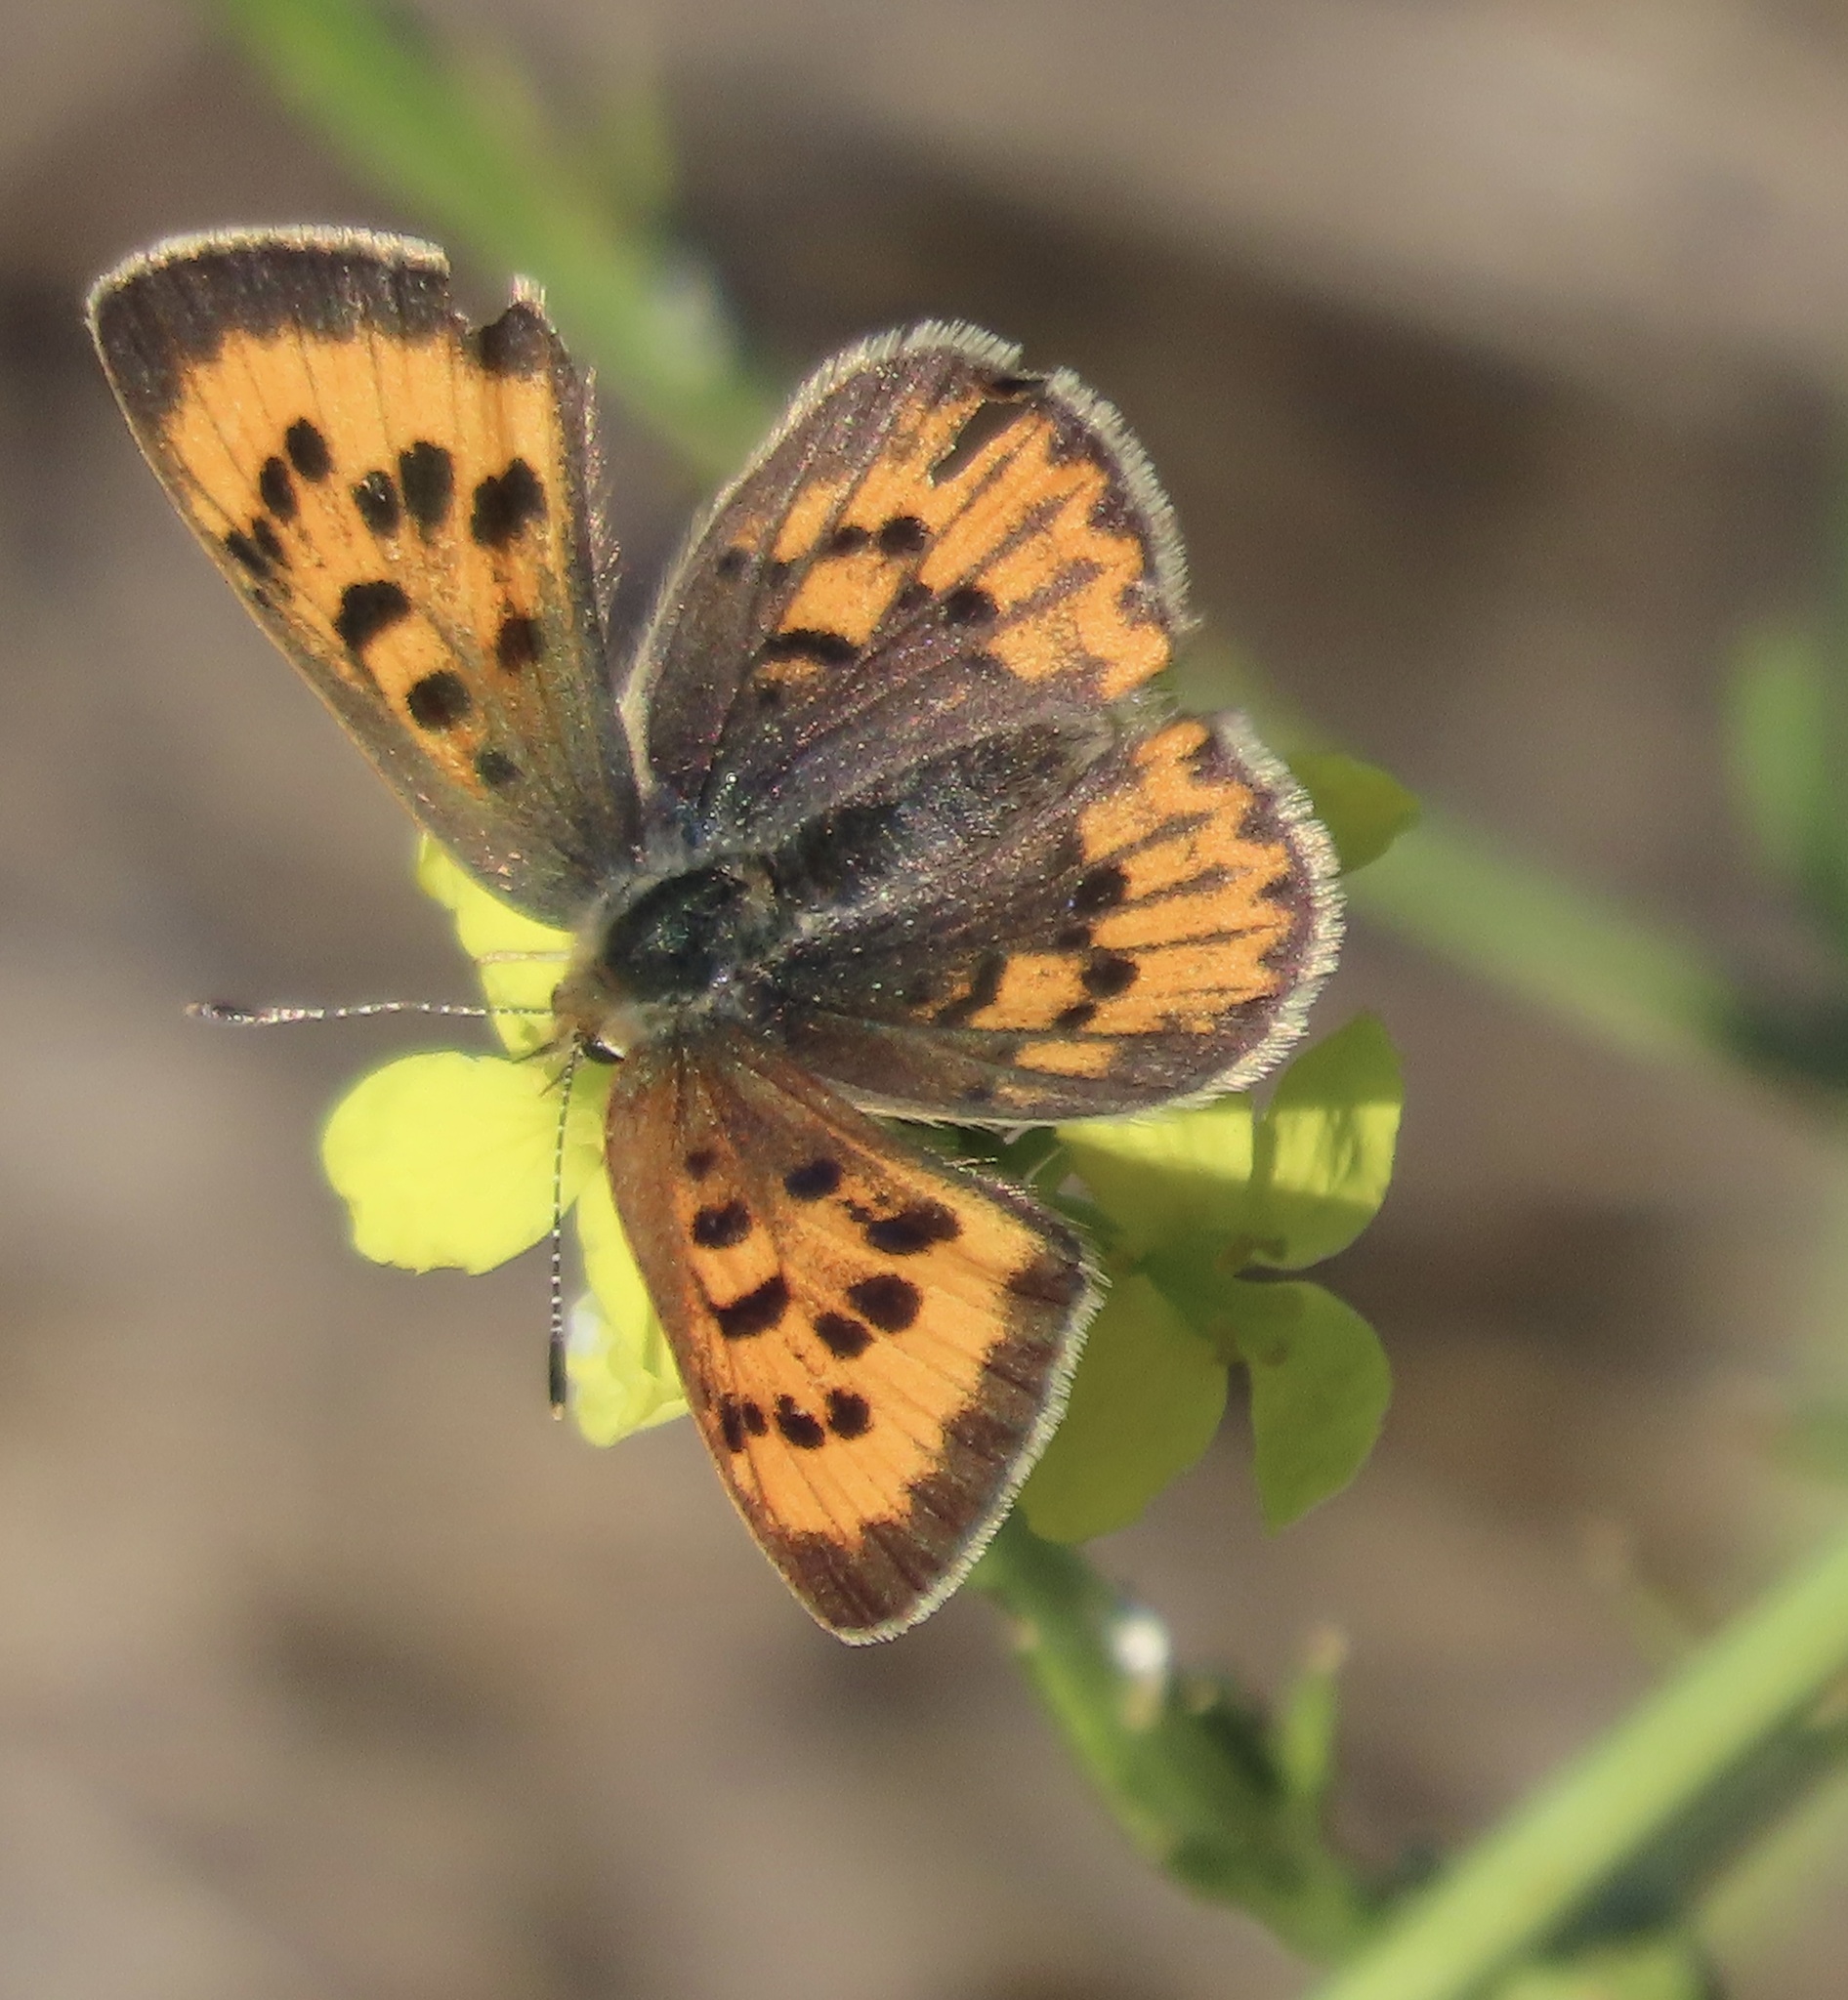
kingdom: Animalia
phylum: Arthropoda
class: Insecta
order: Lepidoptera
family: Lycaenidae
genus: Tharsalea
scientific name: Tharsalea helloides
